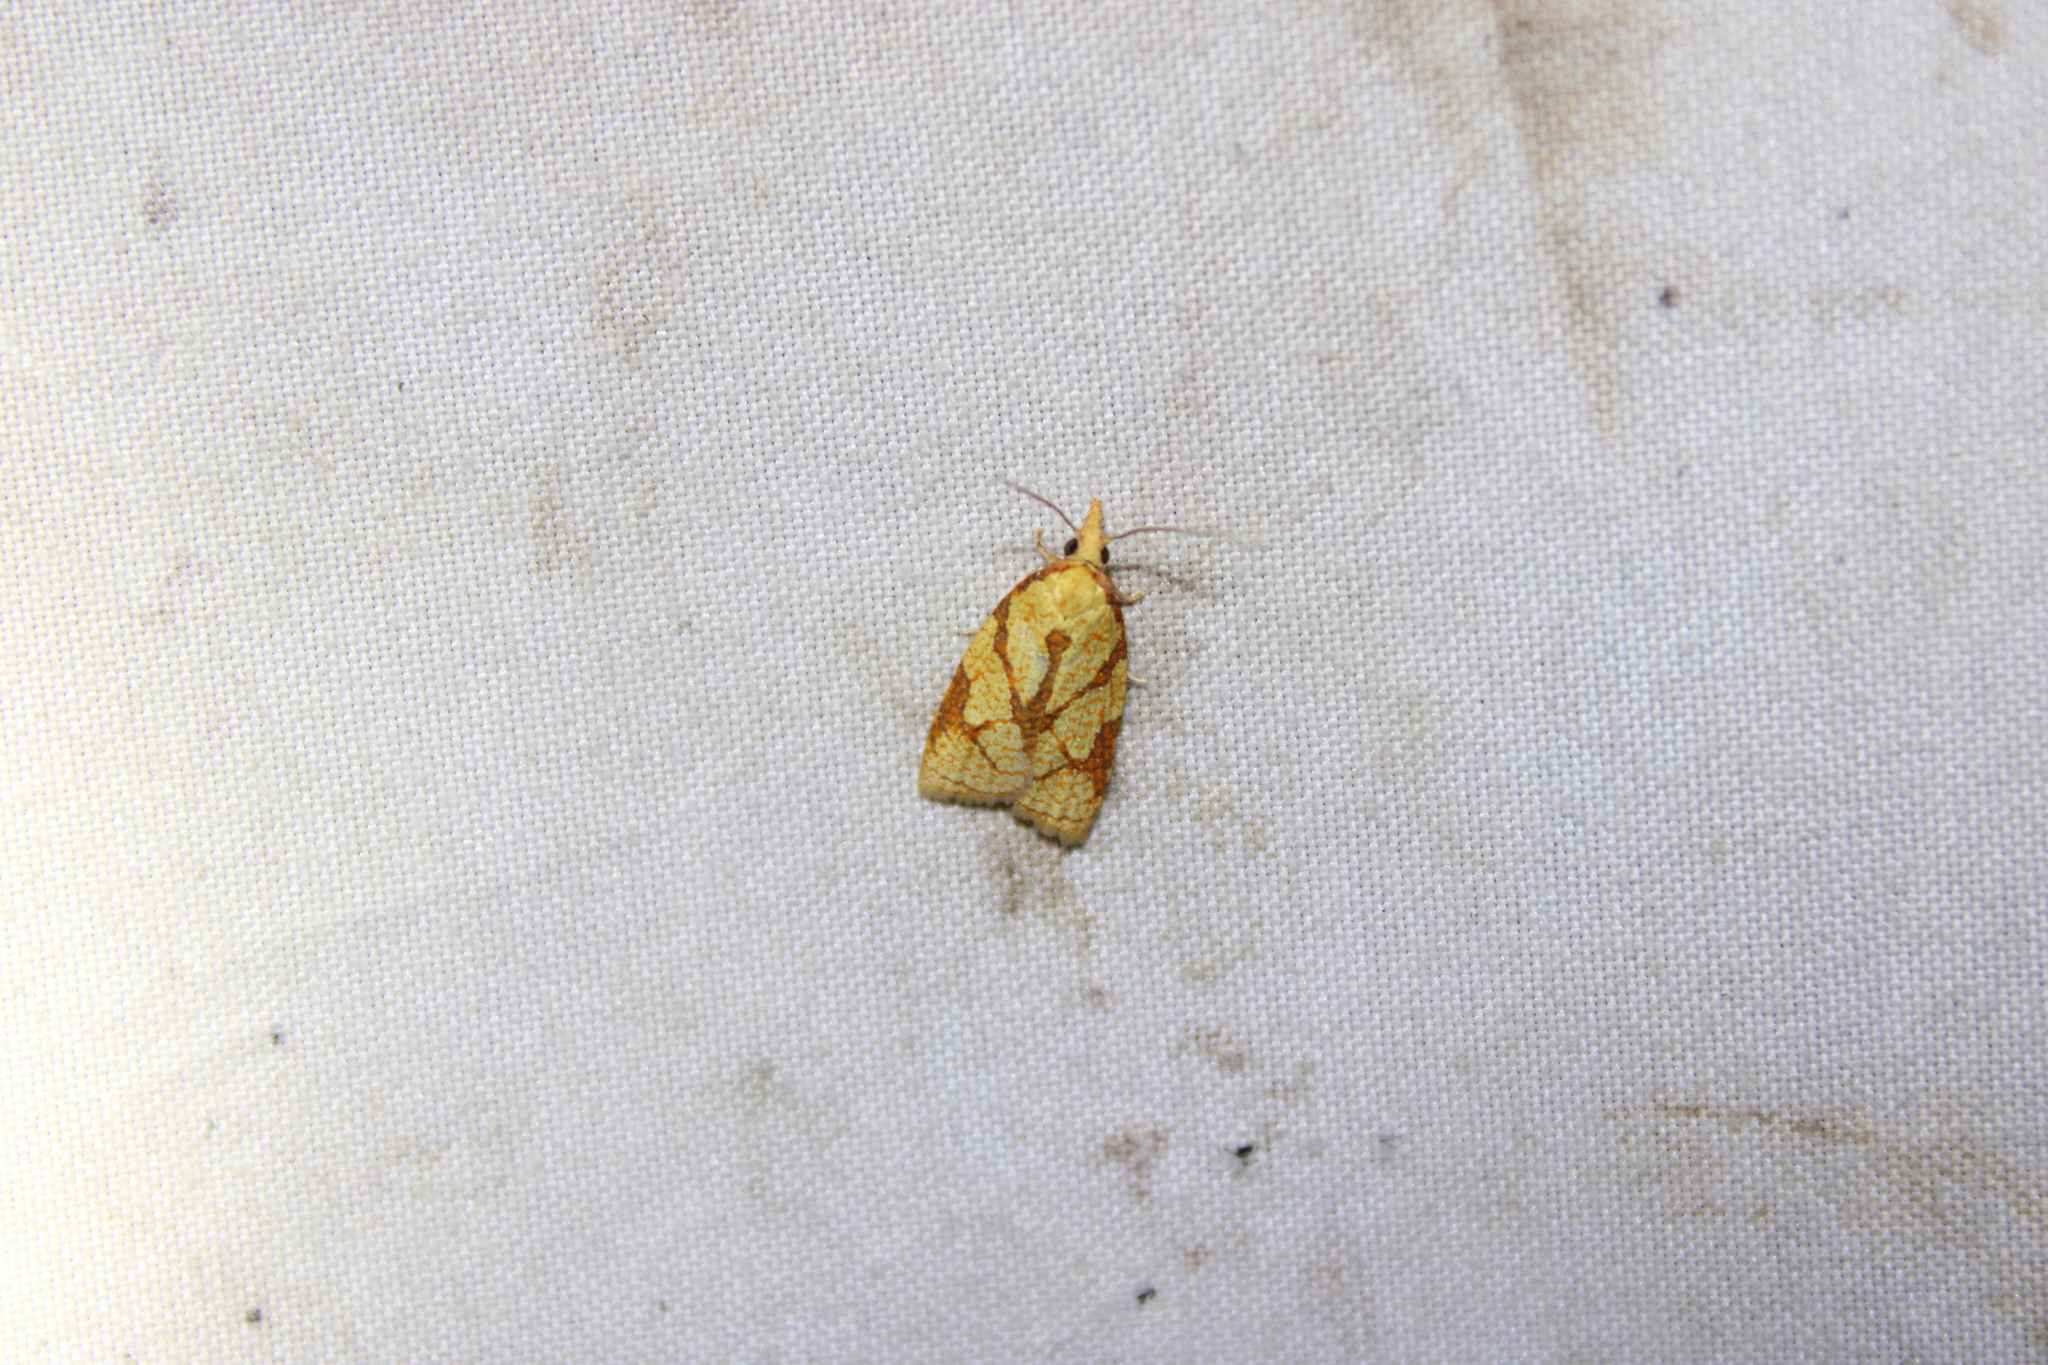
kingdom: Animalia
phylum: Arthropoda
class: Insecta
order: Lepidoptera
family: Tortricidae
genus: Cenopis
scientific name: Cenopis reticulatana
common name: Reticulated fruitworm moth
